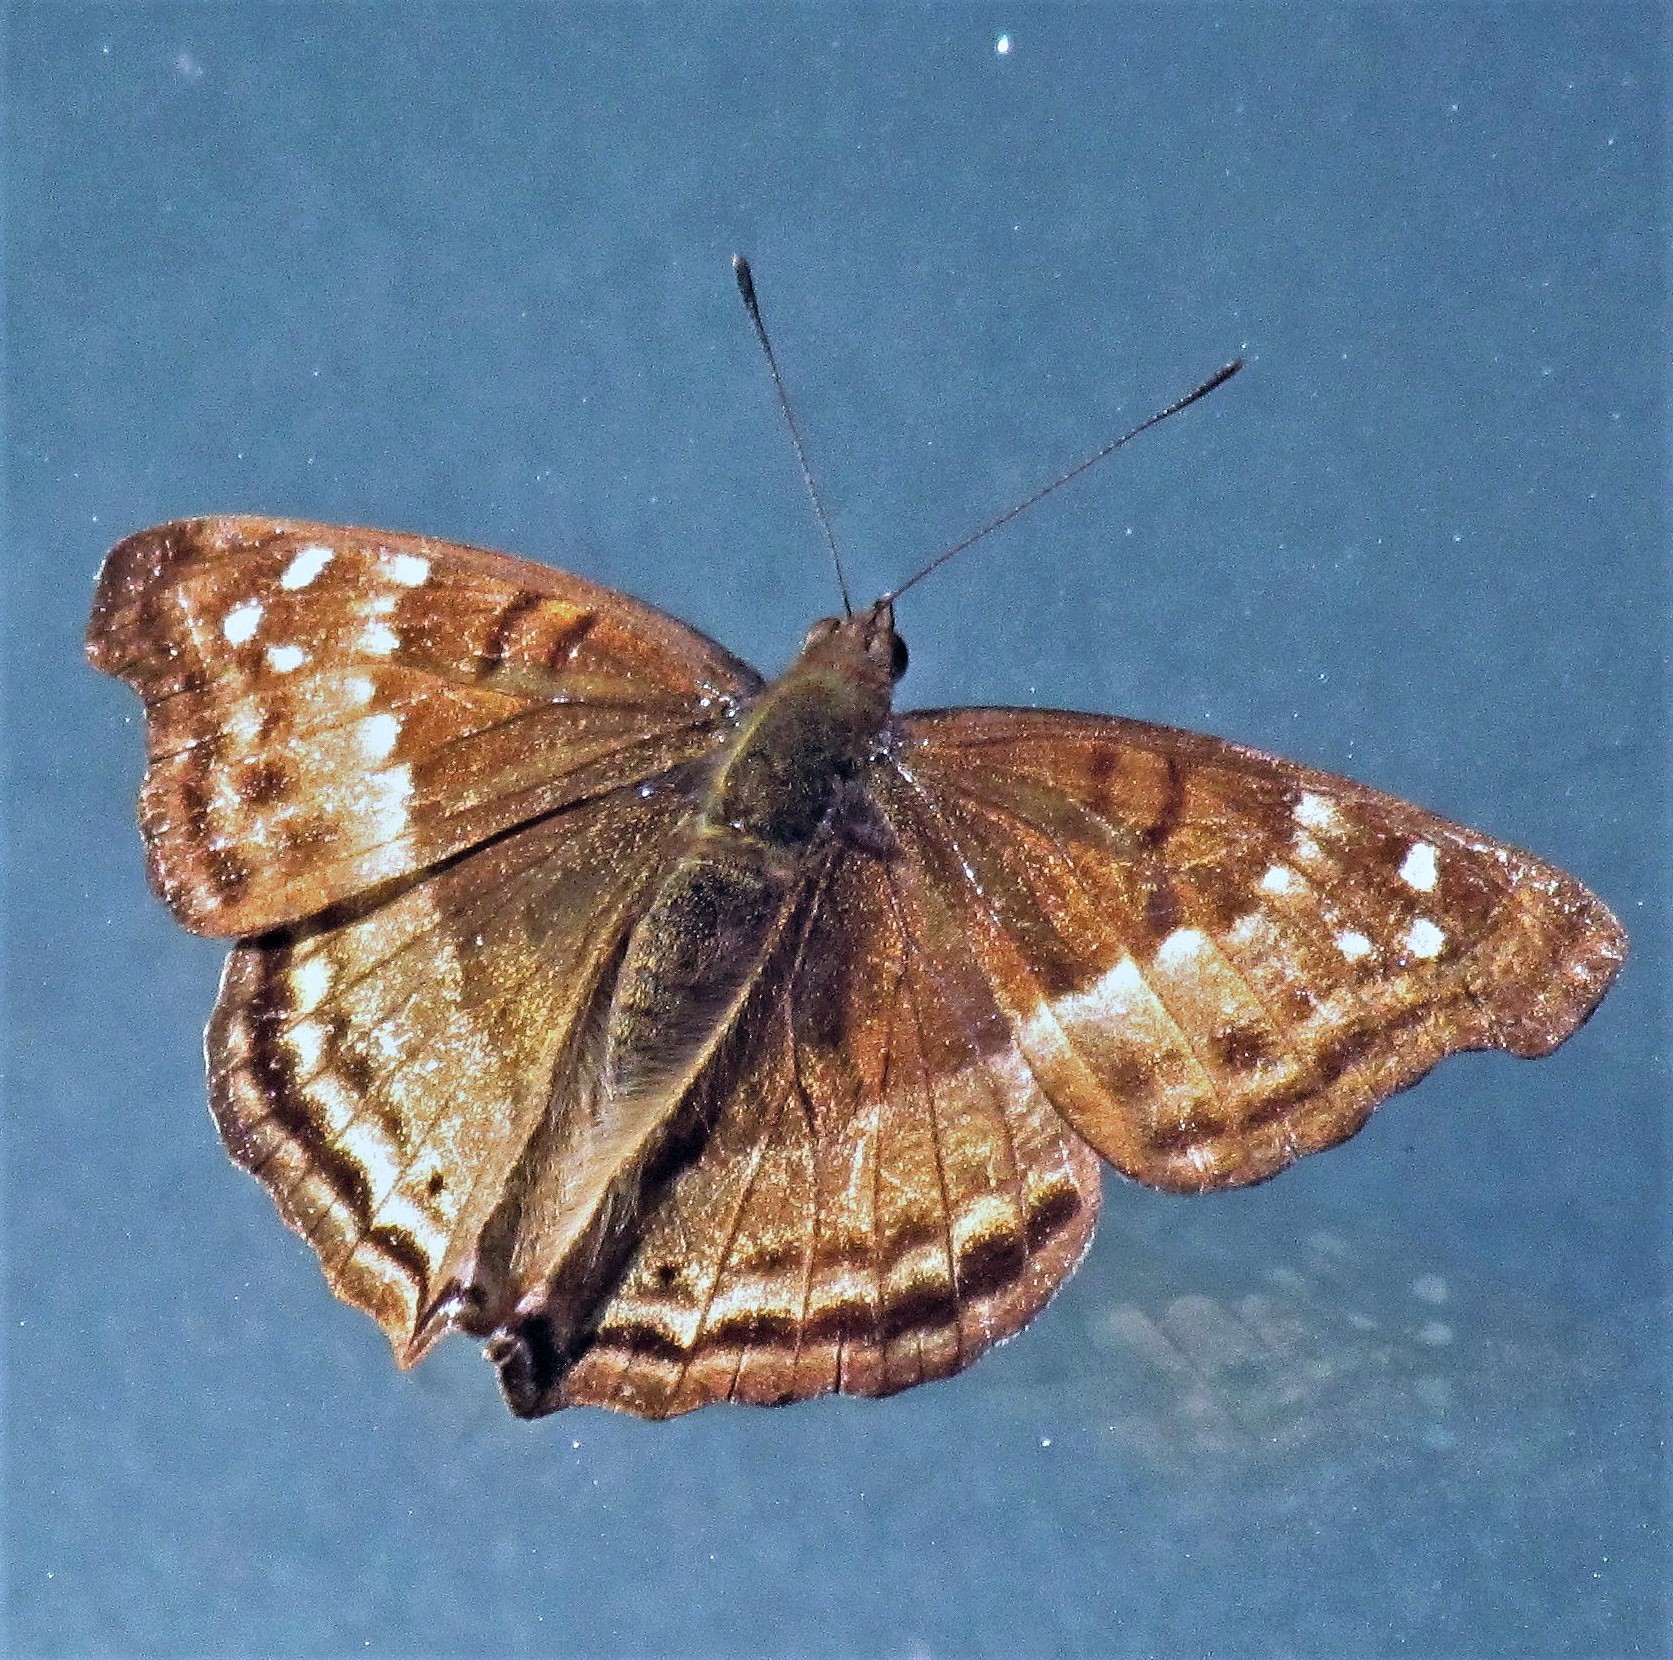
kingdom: Animalia
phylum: Arthropoda
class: Insecta
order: Lepidoptera
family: Nymphalidae
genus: Doxocopa
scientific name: Doxocopa cyane
